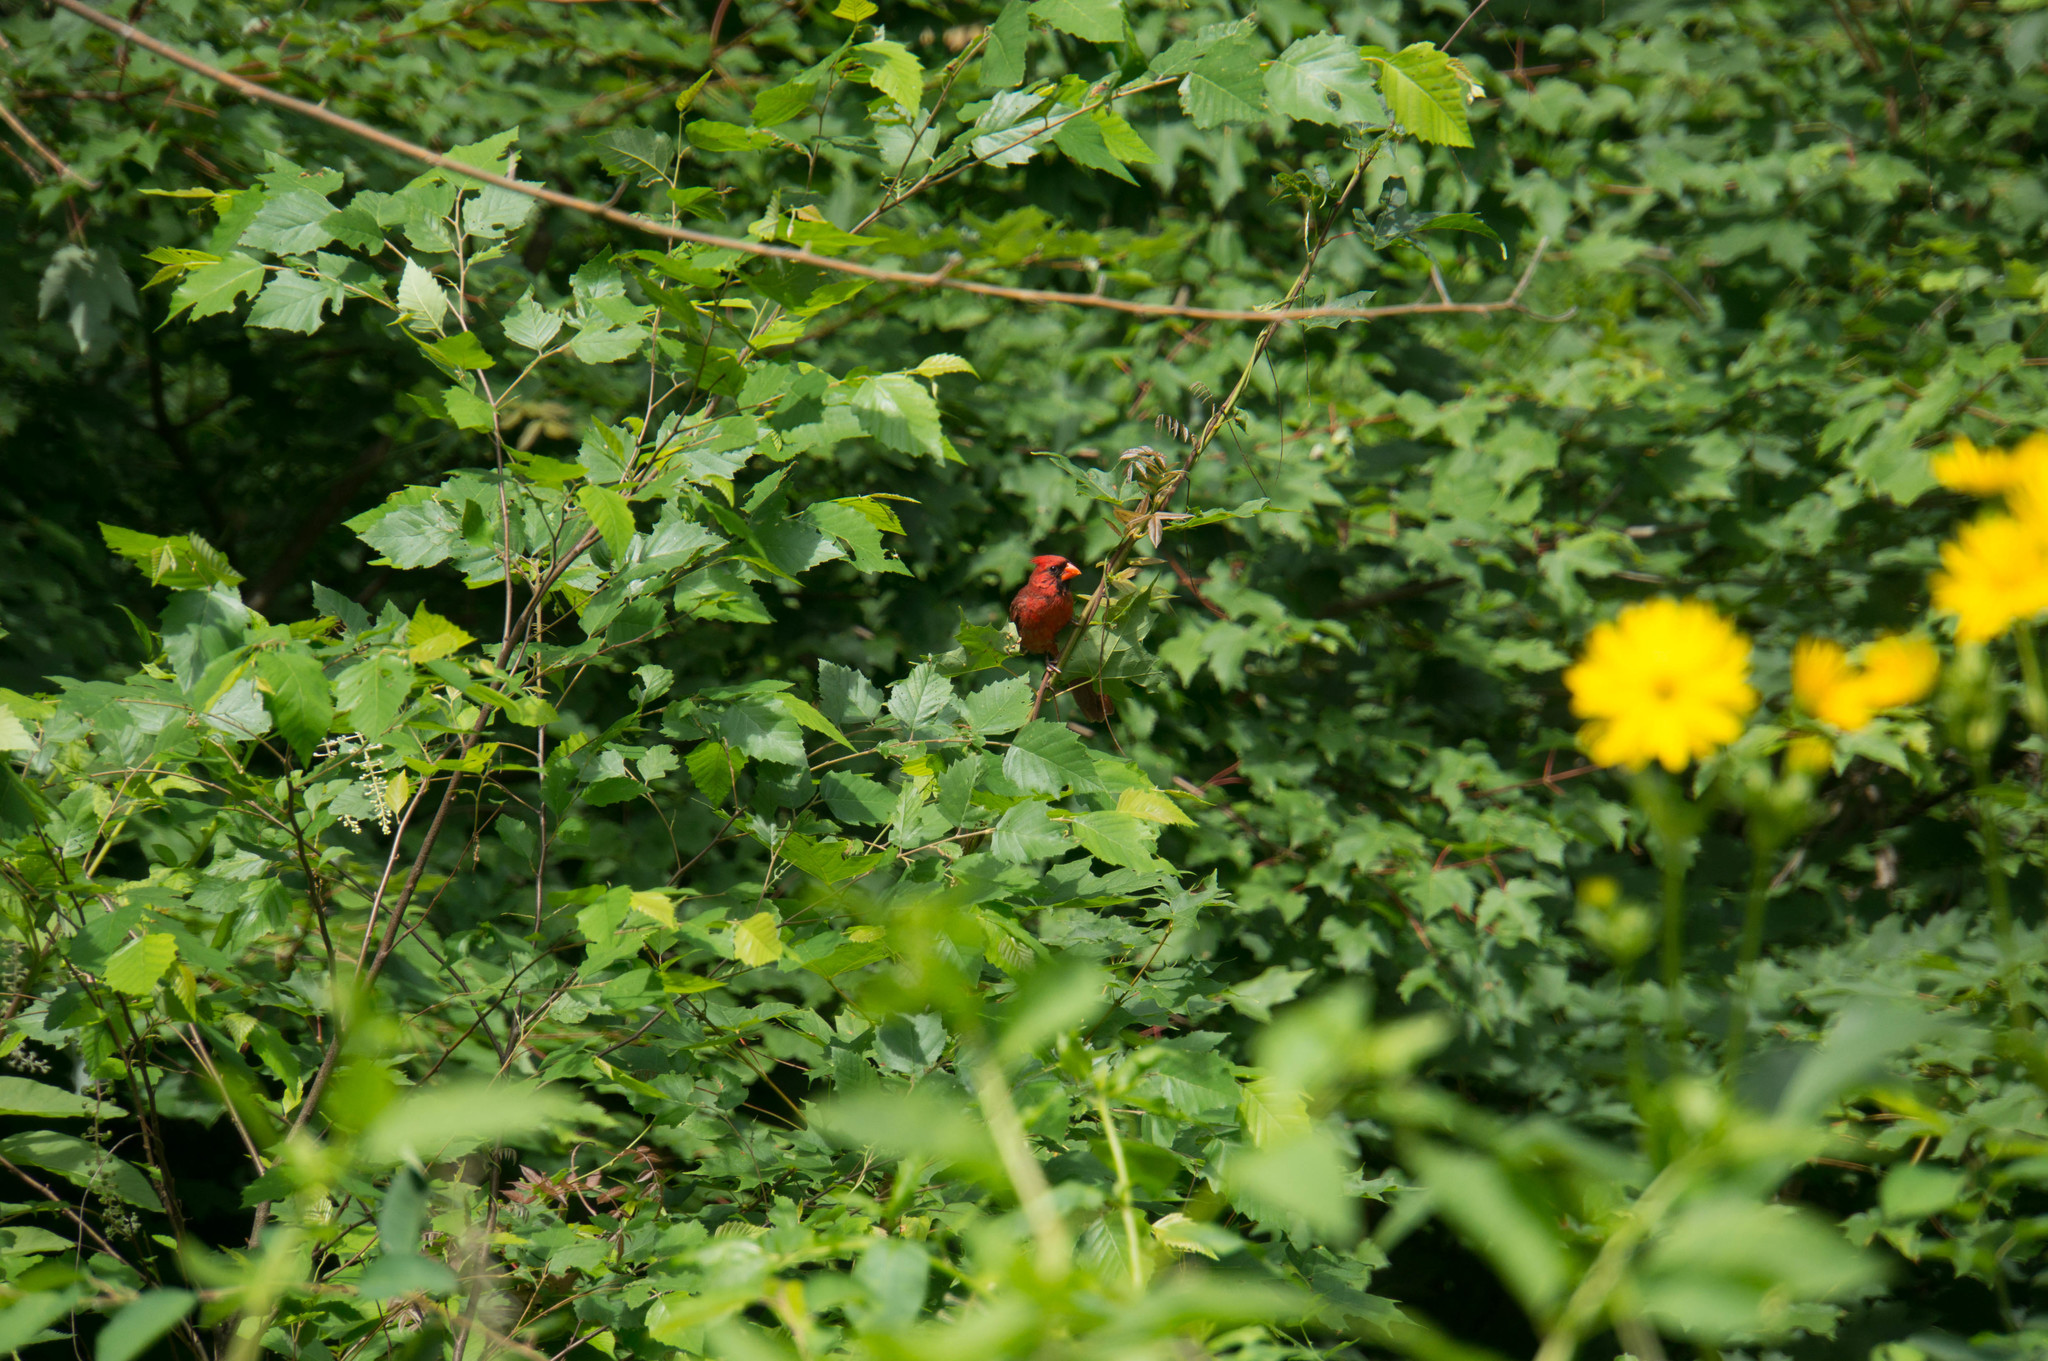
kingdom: Animalia
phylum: Chordata
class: Aves
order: Passeriformes
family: Cardinalidae
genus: Cardinalis
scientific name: Cardinalis cardinalis
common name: Northern cardinal
